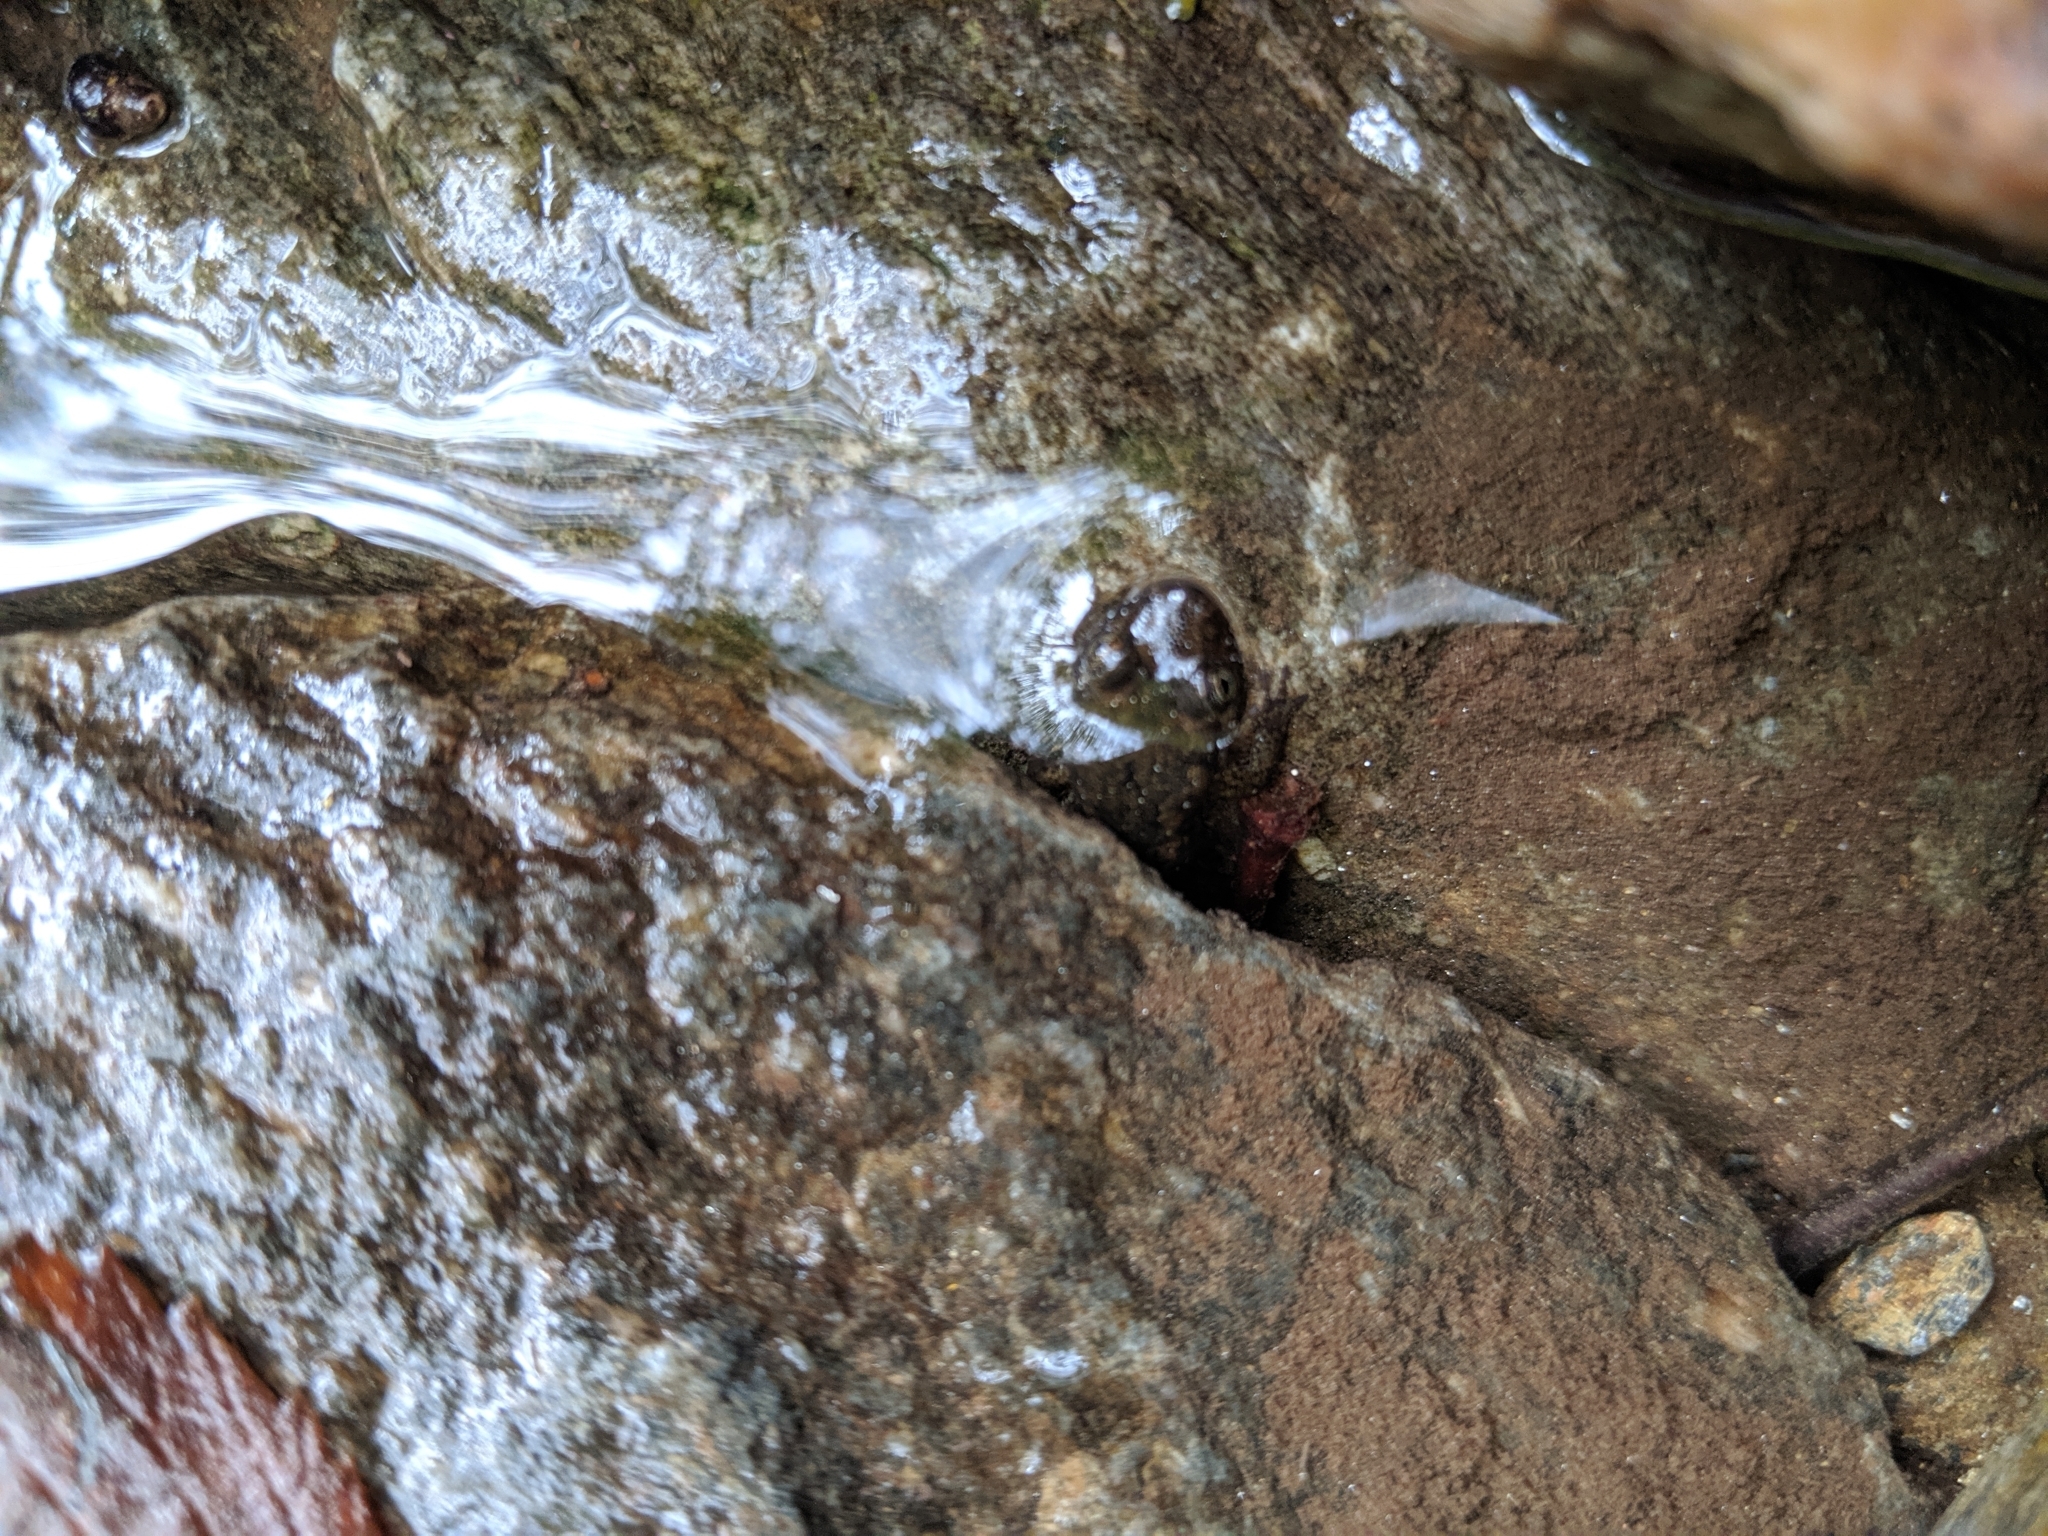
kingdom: Animalia
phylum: Chordata
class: Amphibia
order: Caudata
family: Plethodontidae
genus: Desmognathus
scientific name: Desmognathus
